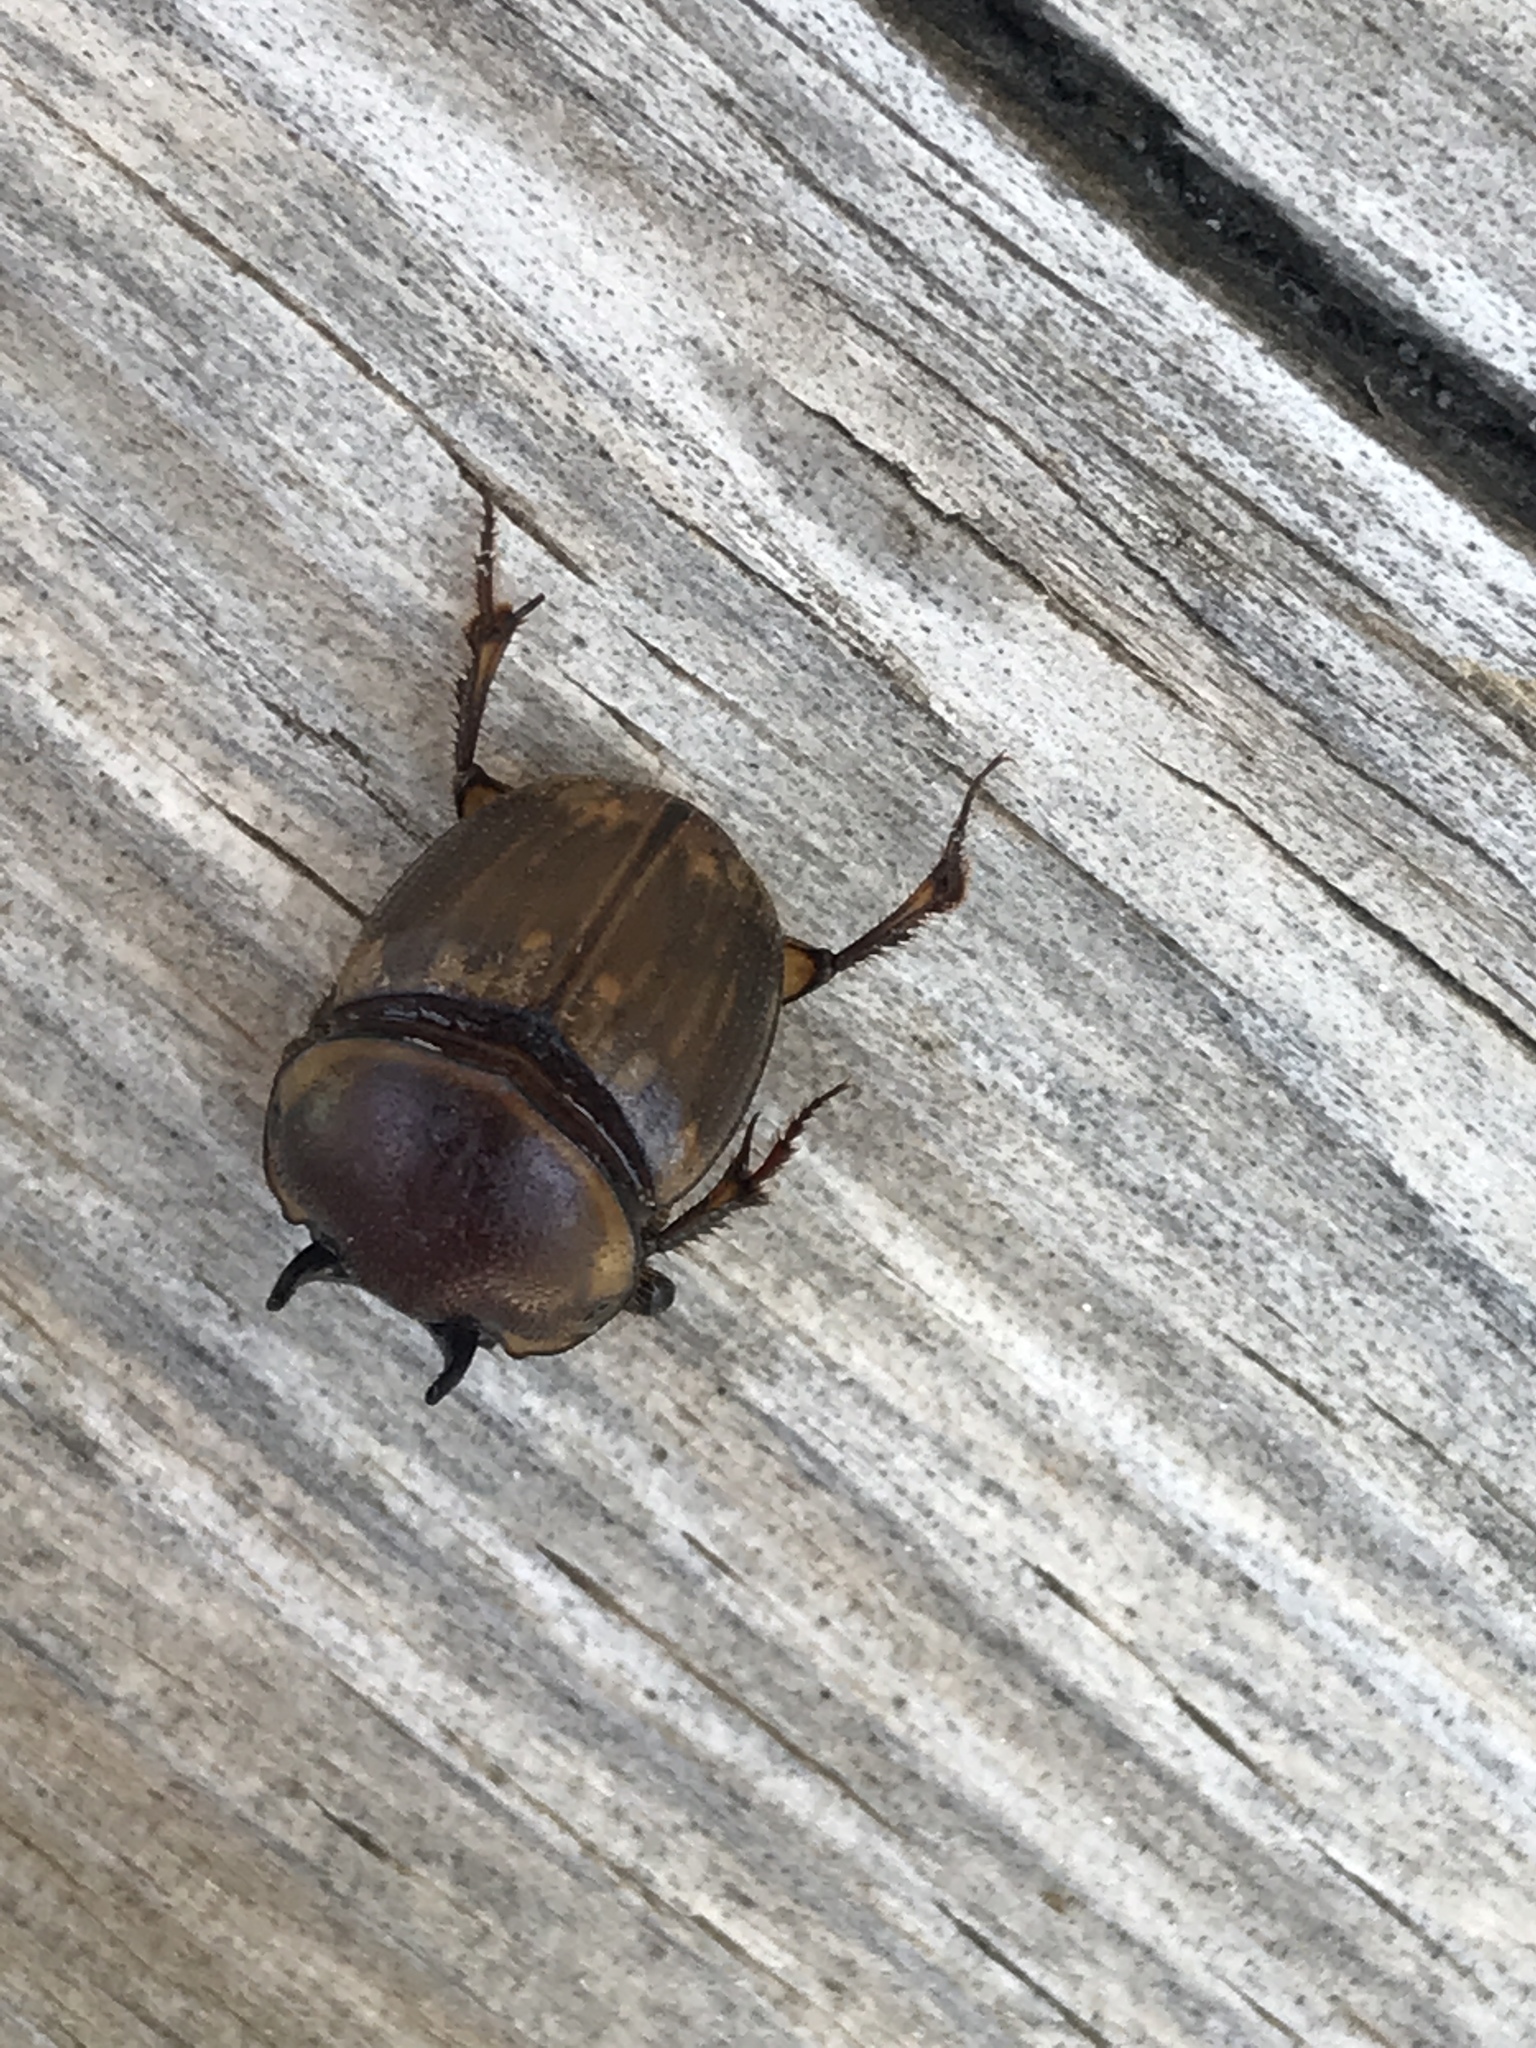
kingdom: Animalia
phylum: Arthropoda
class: Insecta
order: Coleoptera
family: Scarabaeidae
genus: Digitonthophagus
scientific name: Digitonthophagus gazella
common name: Brown dung beetle
